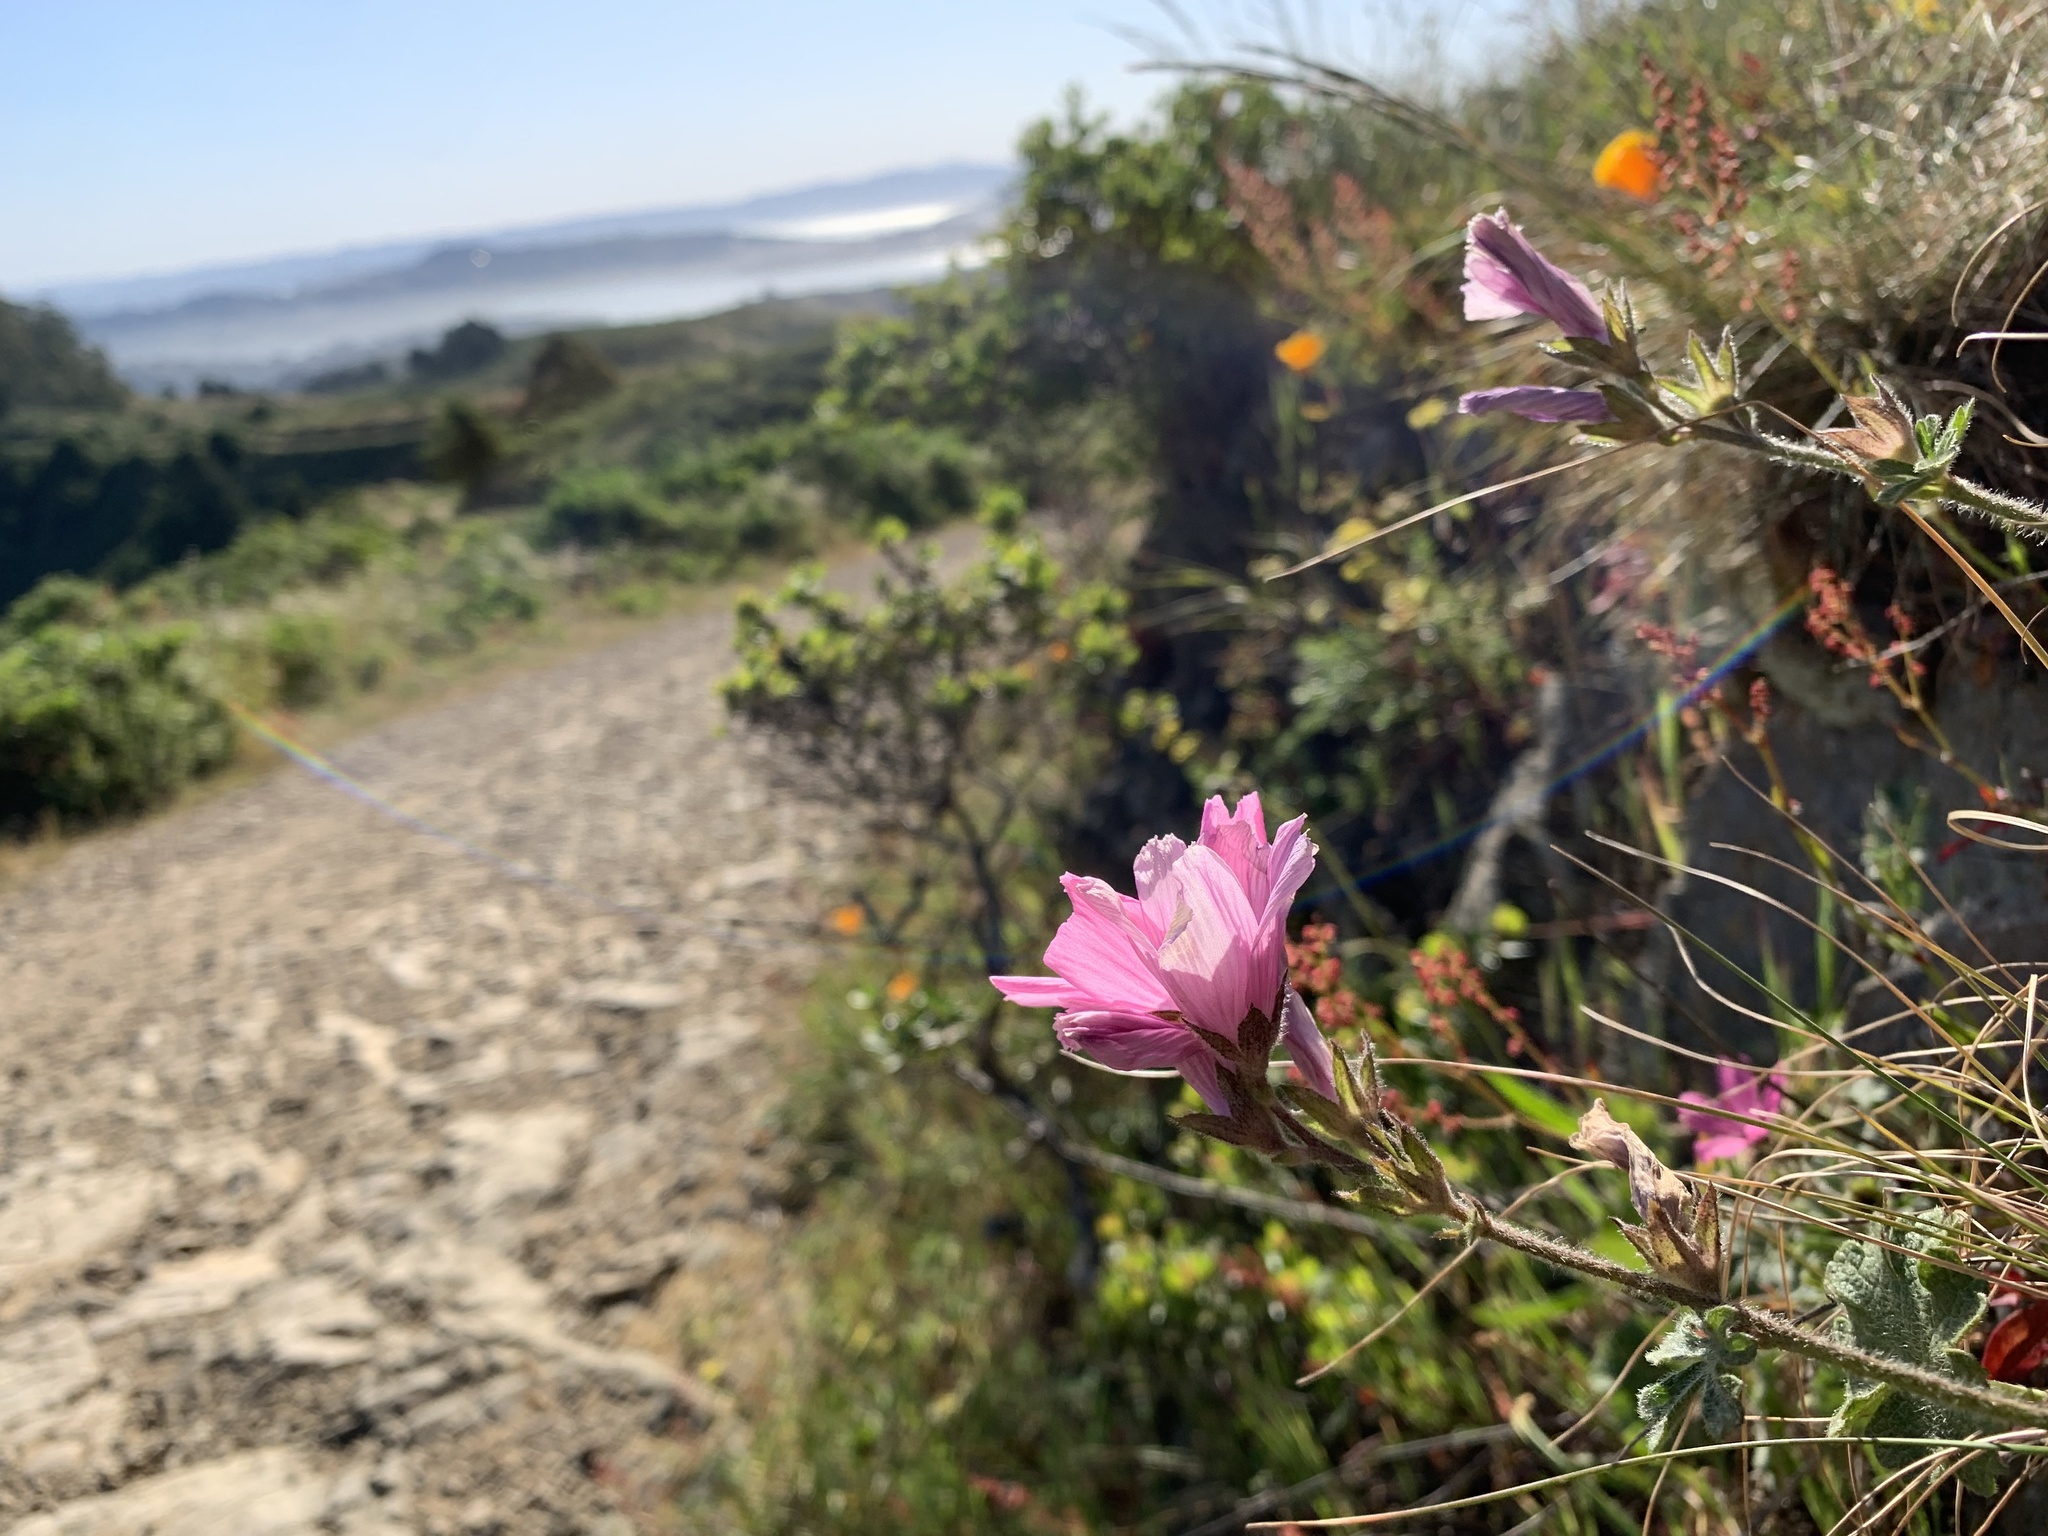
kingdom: Plantae
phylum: Tracheophyta
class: Magnoliopsida
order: Malvales
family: Malvaceae
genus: Sidalcea
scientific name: Sidalcea malviflora
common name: Greek mallow
